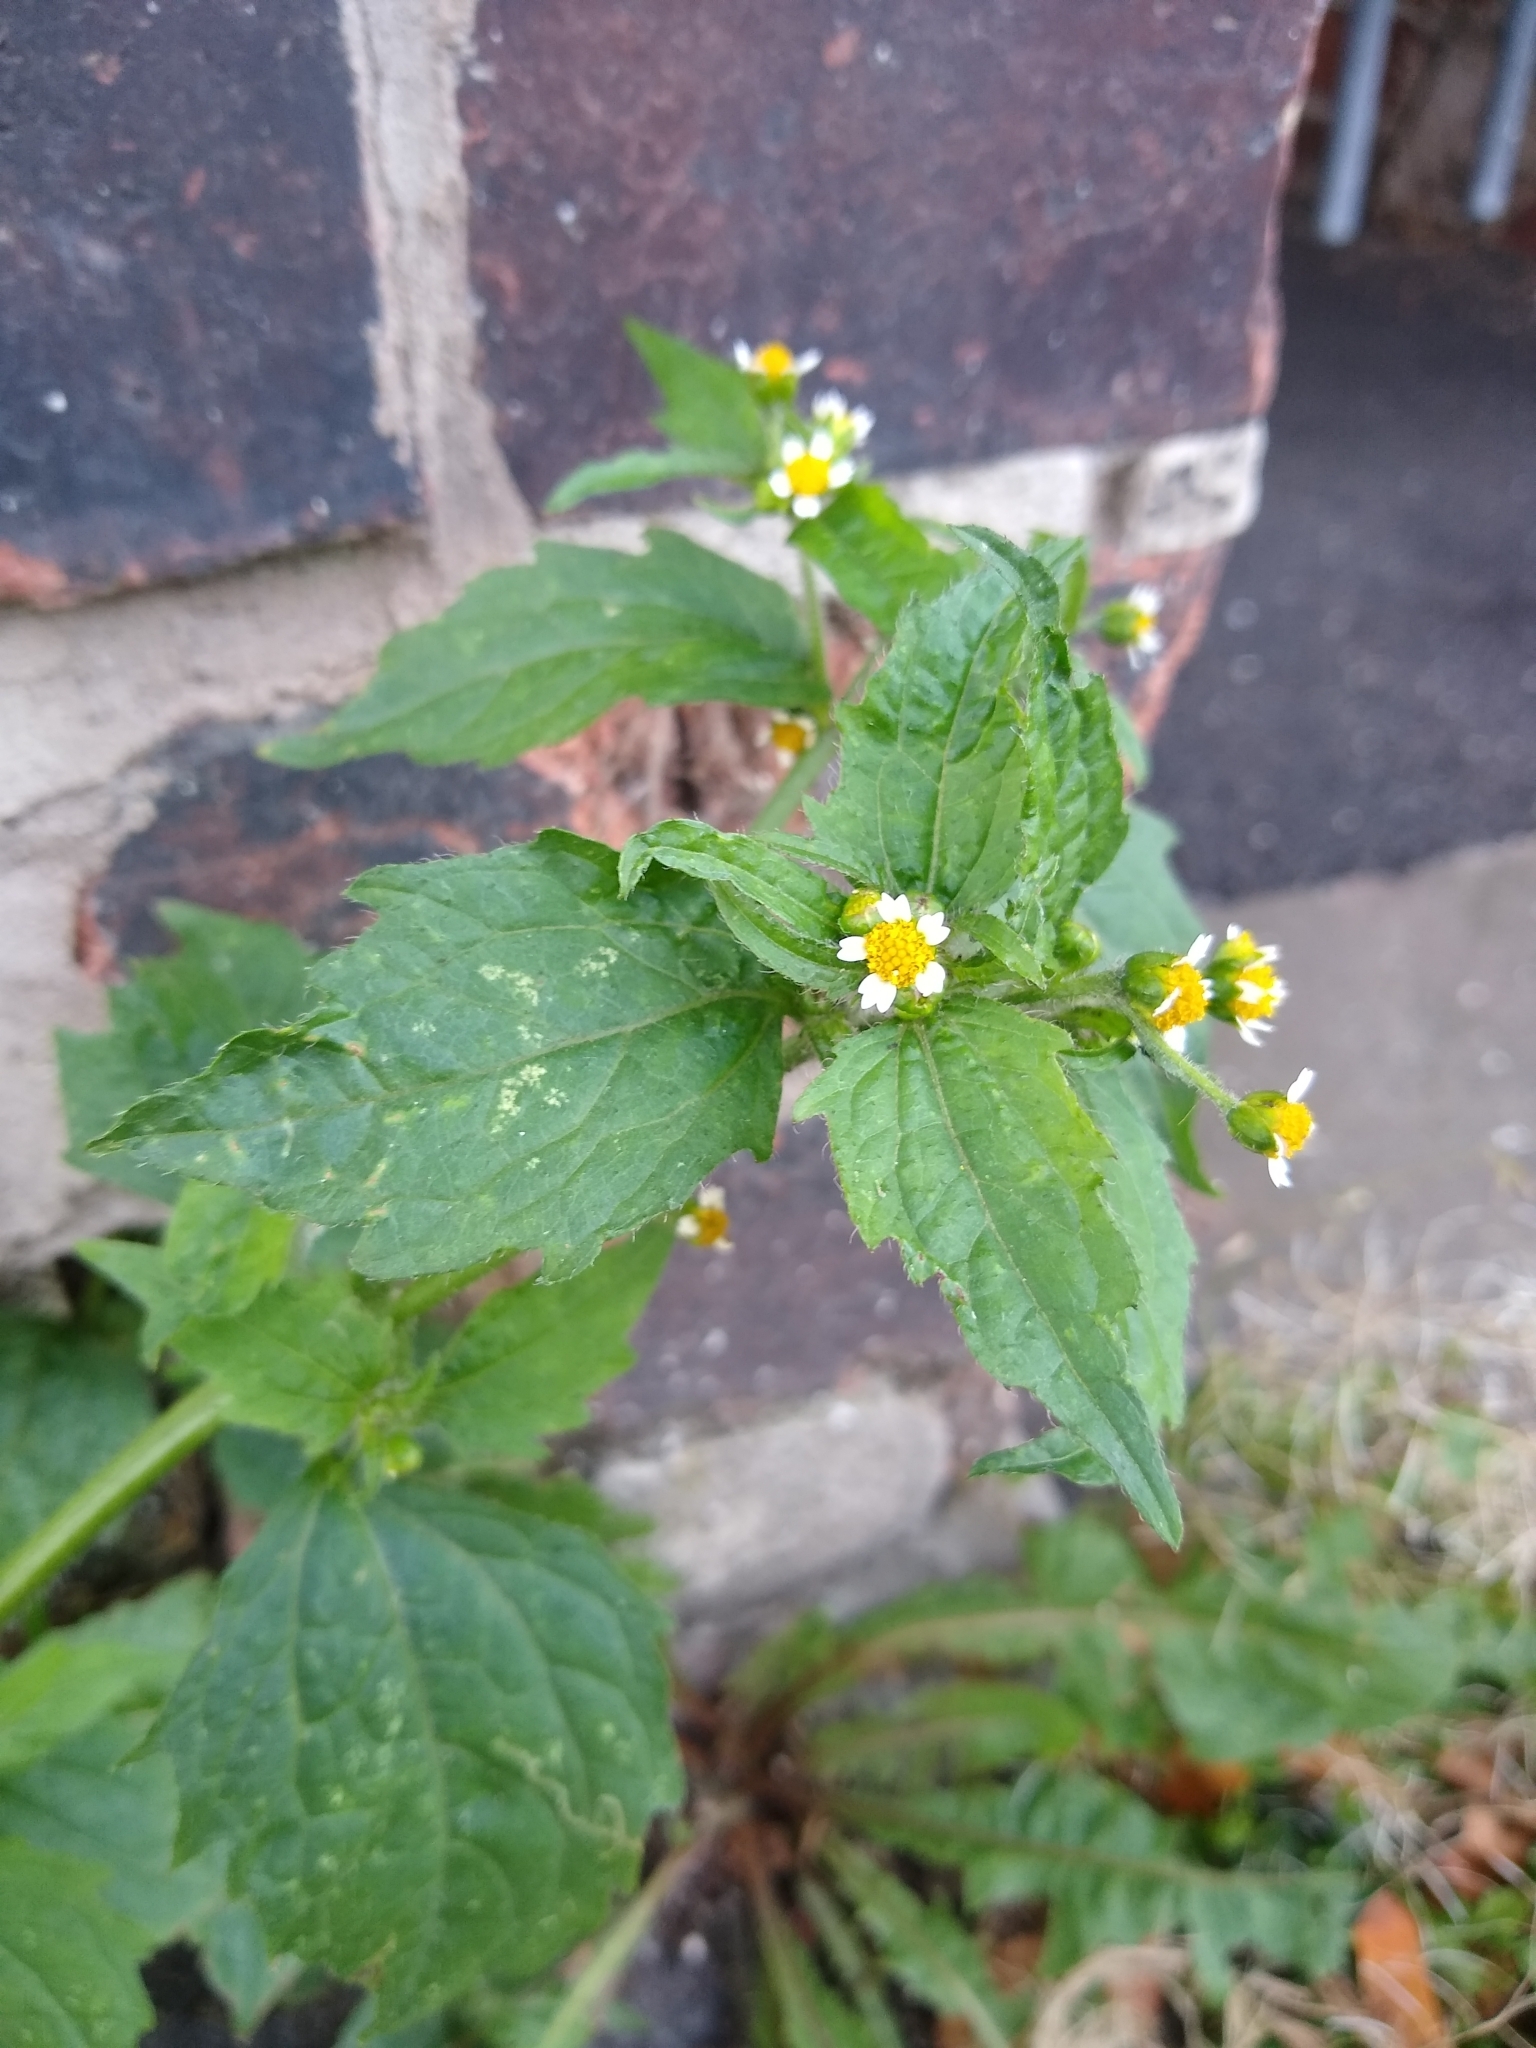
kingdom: Plantae
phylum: Tracheophyta
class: Magnoliopsida
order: Asterales
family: Asteraceae
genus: Galinsoga
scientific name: Galinsoga quadriradiata
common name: Shaggy soldier
